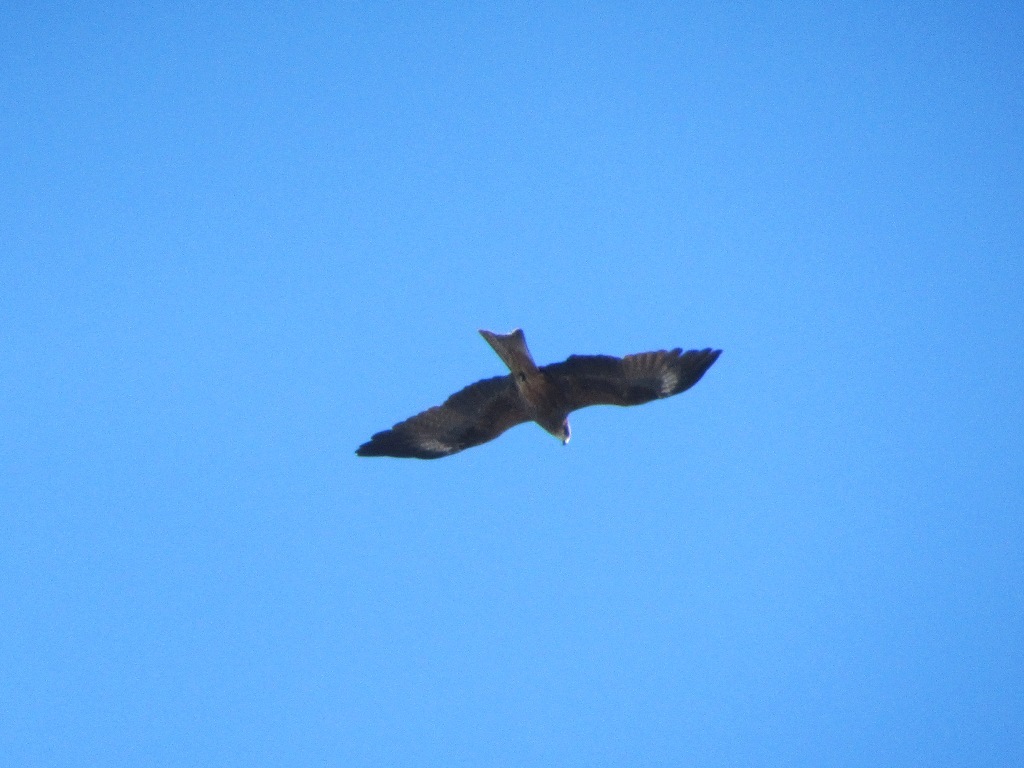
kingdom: Animalia
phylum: Chordata
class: Aves
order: Accipitriformes
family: Accipitridae
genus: Milvus
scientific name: Milvus migrans
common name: Black kite
